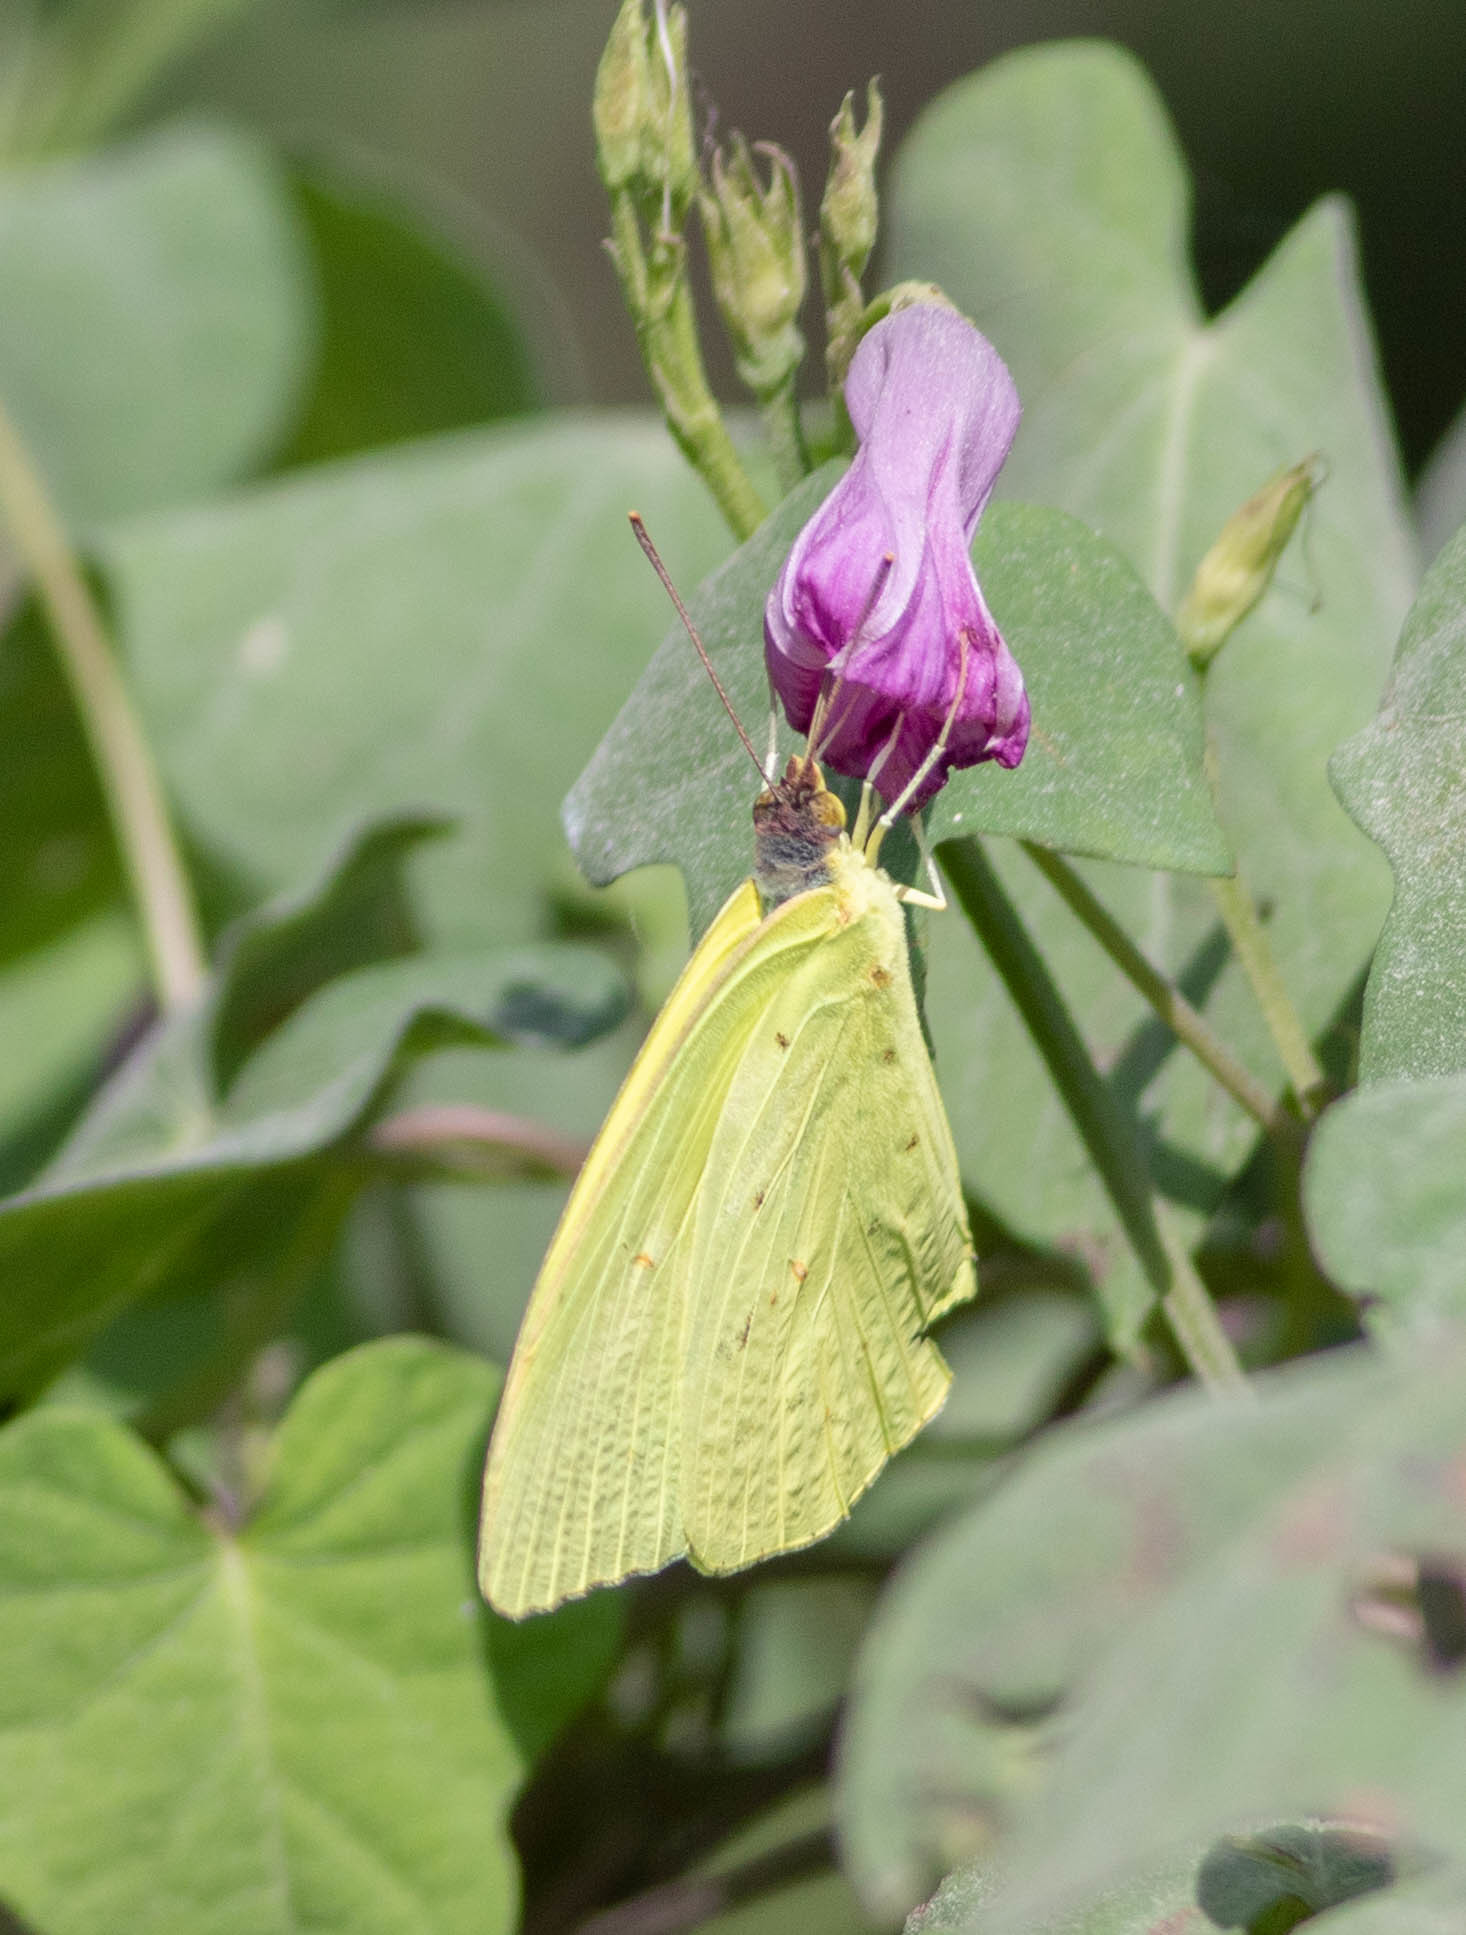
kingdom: Animalia
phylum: Arthropoda
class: Insecta
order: Lepidoptera
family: Pieridae
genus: Phoebis
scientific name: Phoebis sennae
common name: Cloudless sulphur
